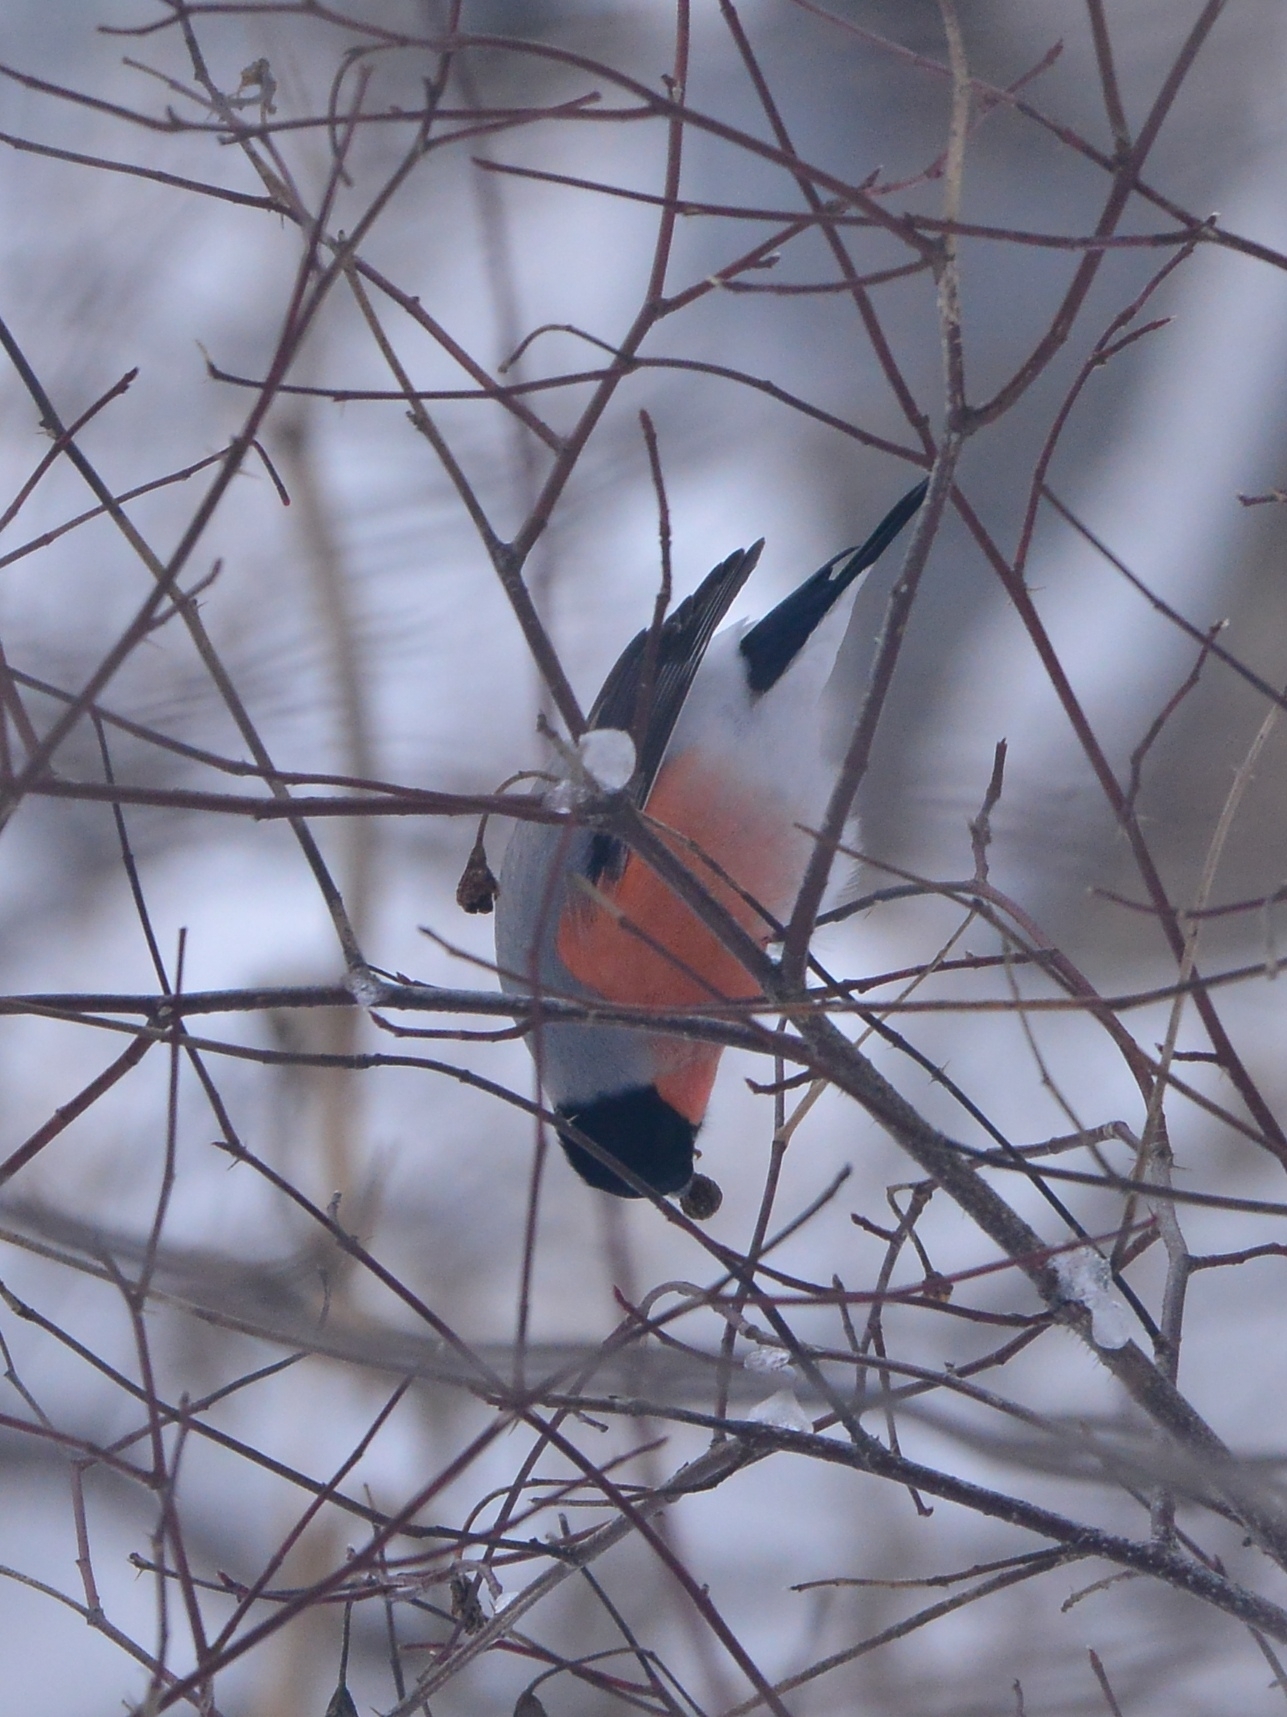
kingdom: Animalia
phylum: Chordata
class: Aves
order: Passeriformes
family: Fringillidae
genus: Pyrrhula
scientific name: Pyrrhula pyrrhula
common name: Eurasian bullfinch
